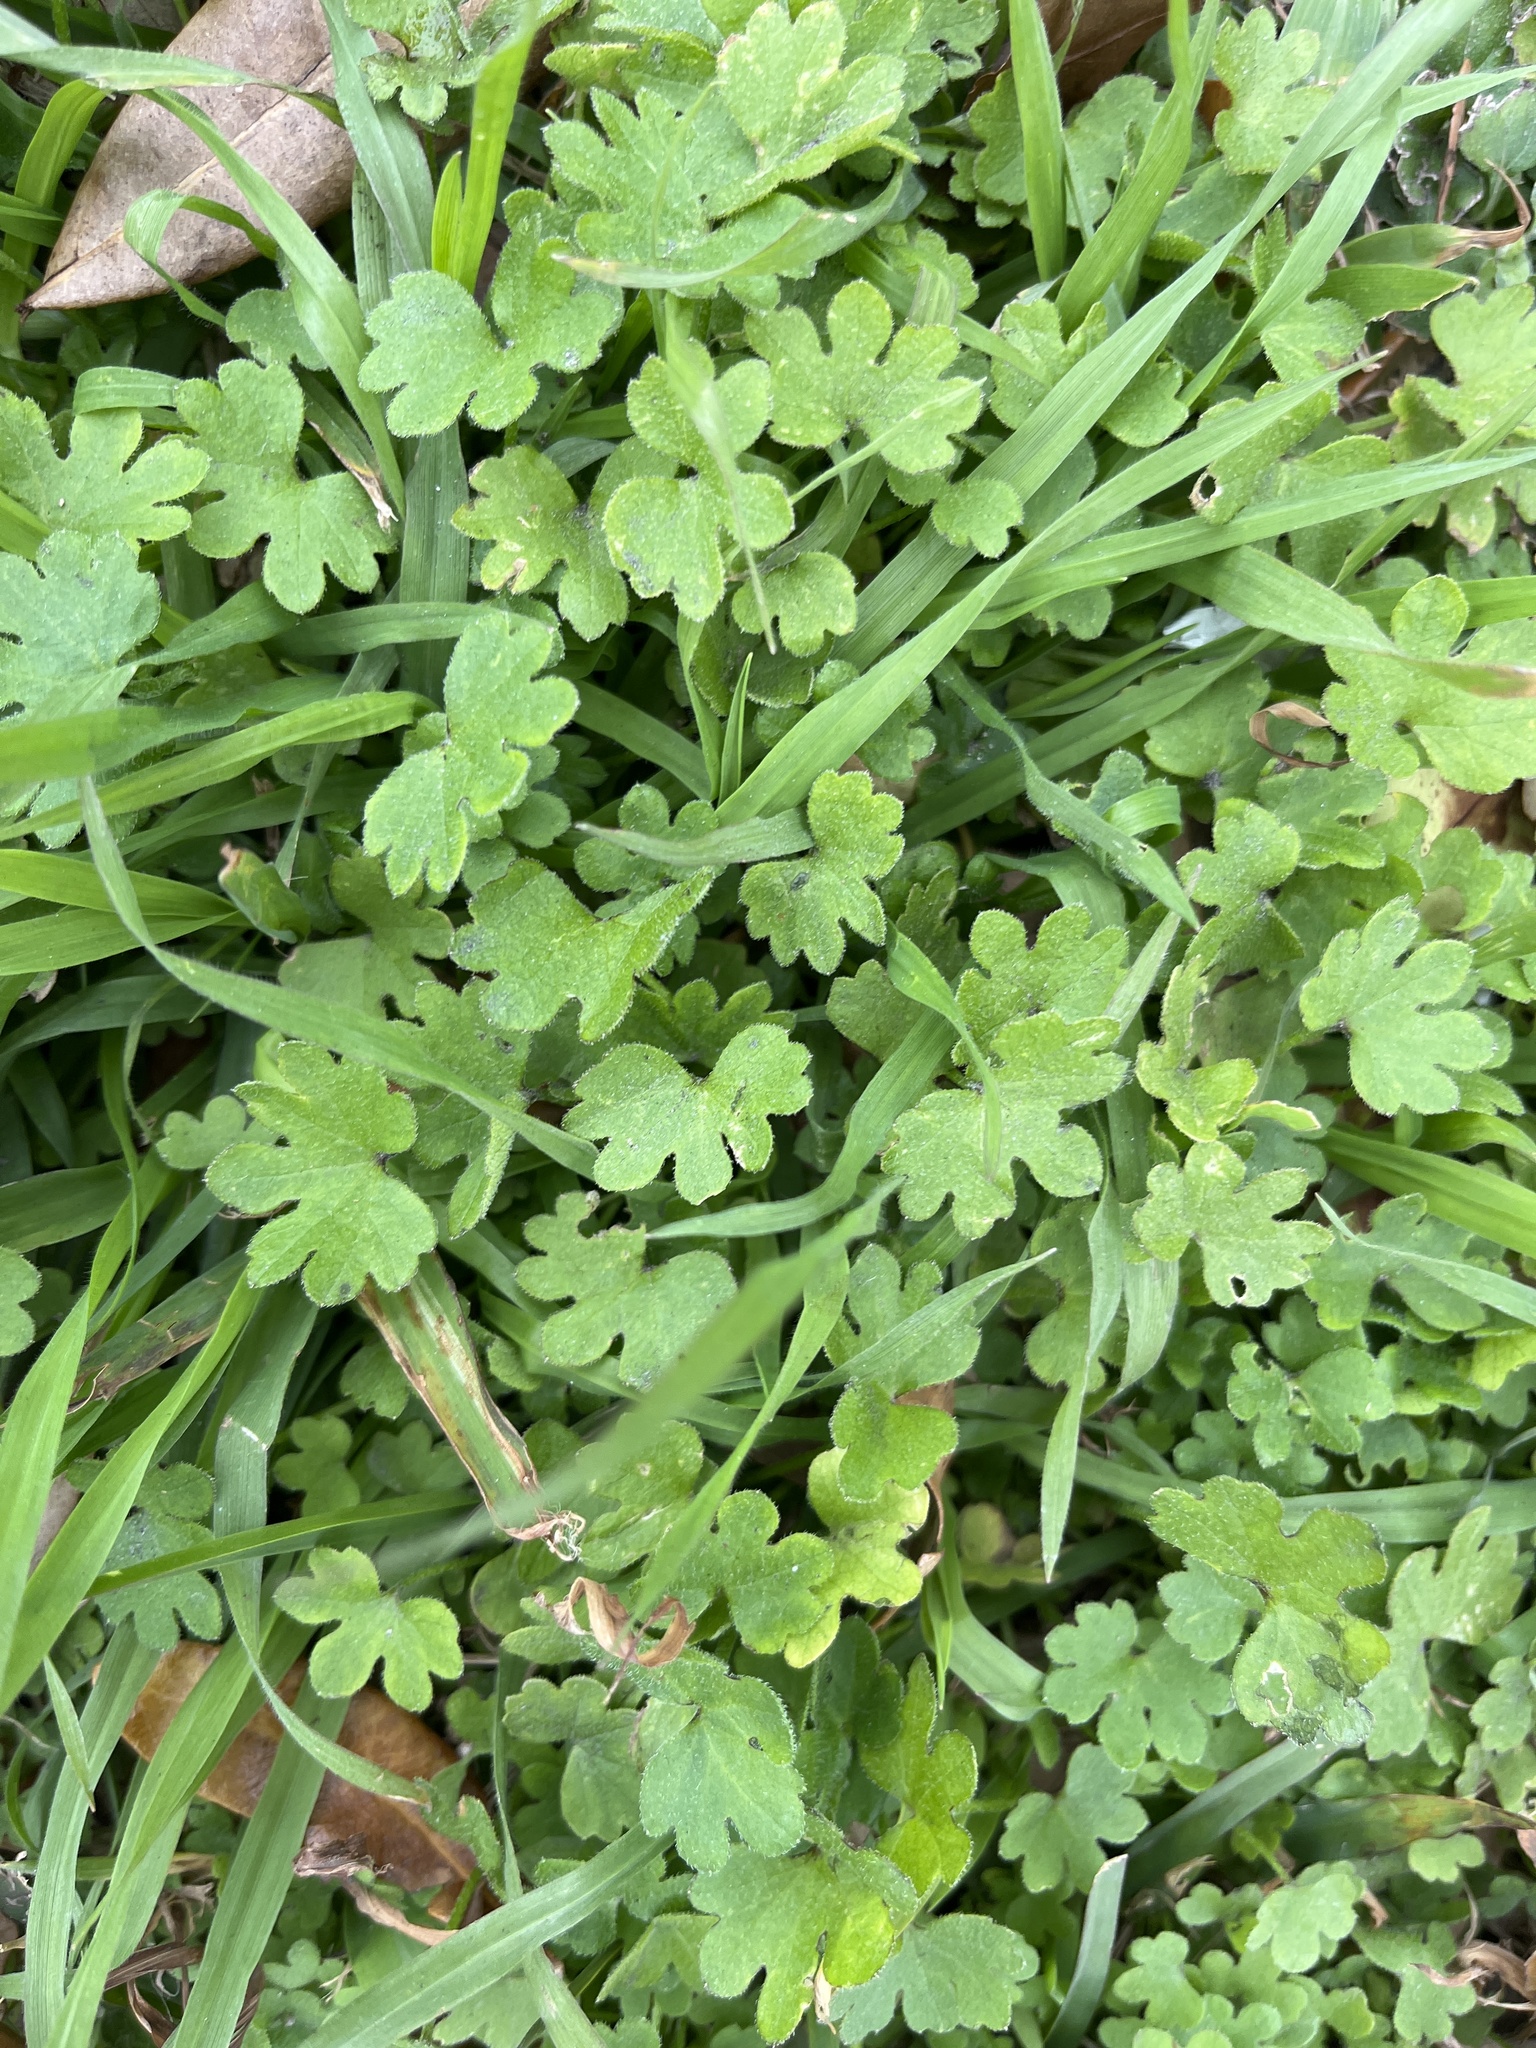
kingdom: Plantae
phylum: Tracheophyta
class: Magnoliopsida
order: Apiales
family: Apiaceae
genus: Bowlesia
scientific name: Bowlesia incana
